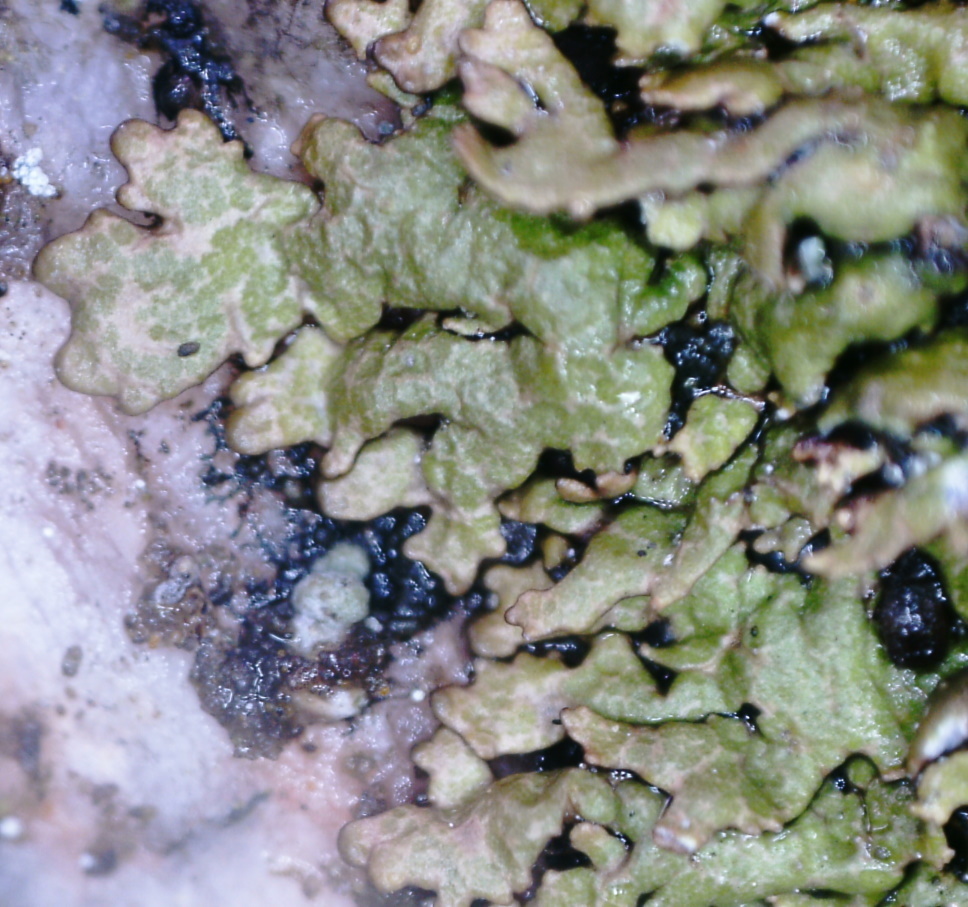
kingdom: Fungi
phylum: Ascomycota
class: Lecanoromycetes
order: Lecanorales
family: Parmeliaceae
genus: Montanelia
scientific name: Montanelia panniformis
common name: Shingled camouflage lichen
